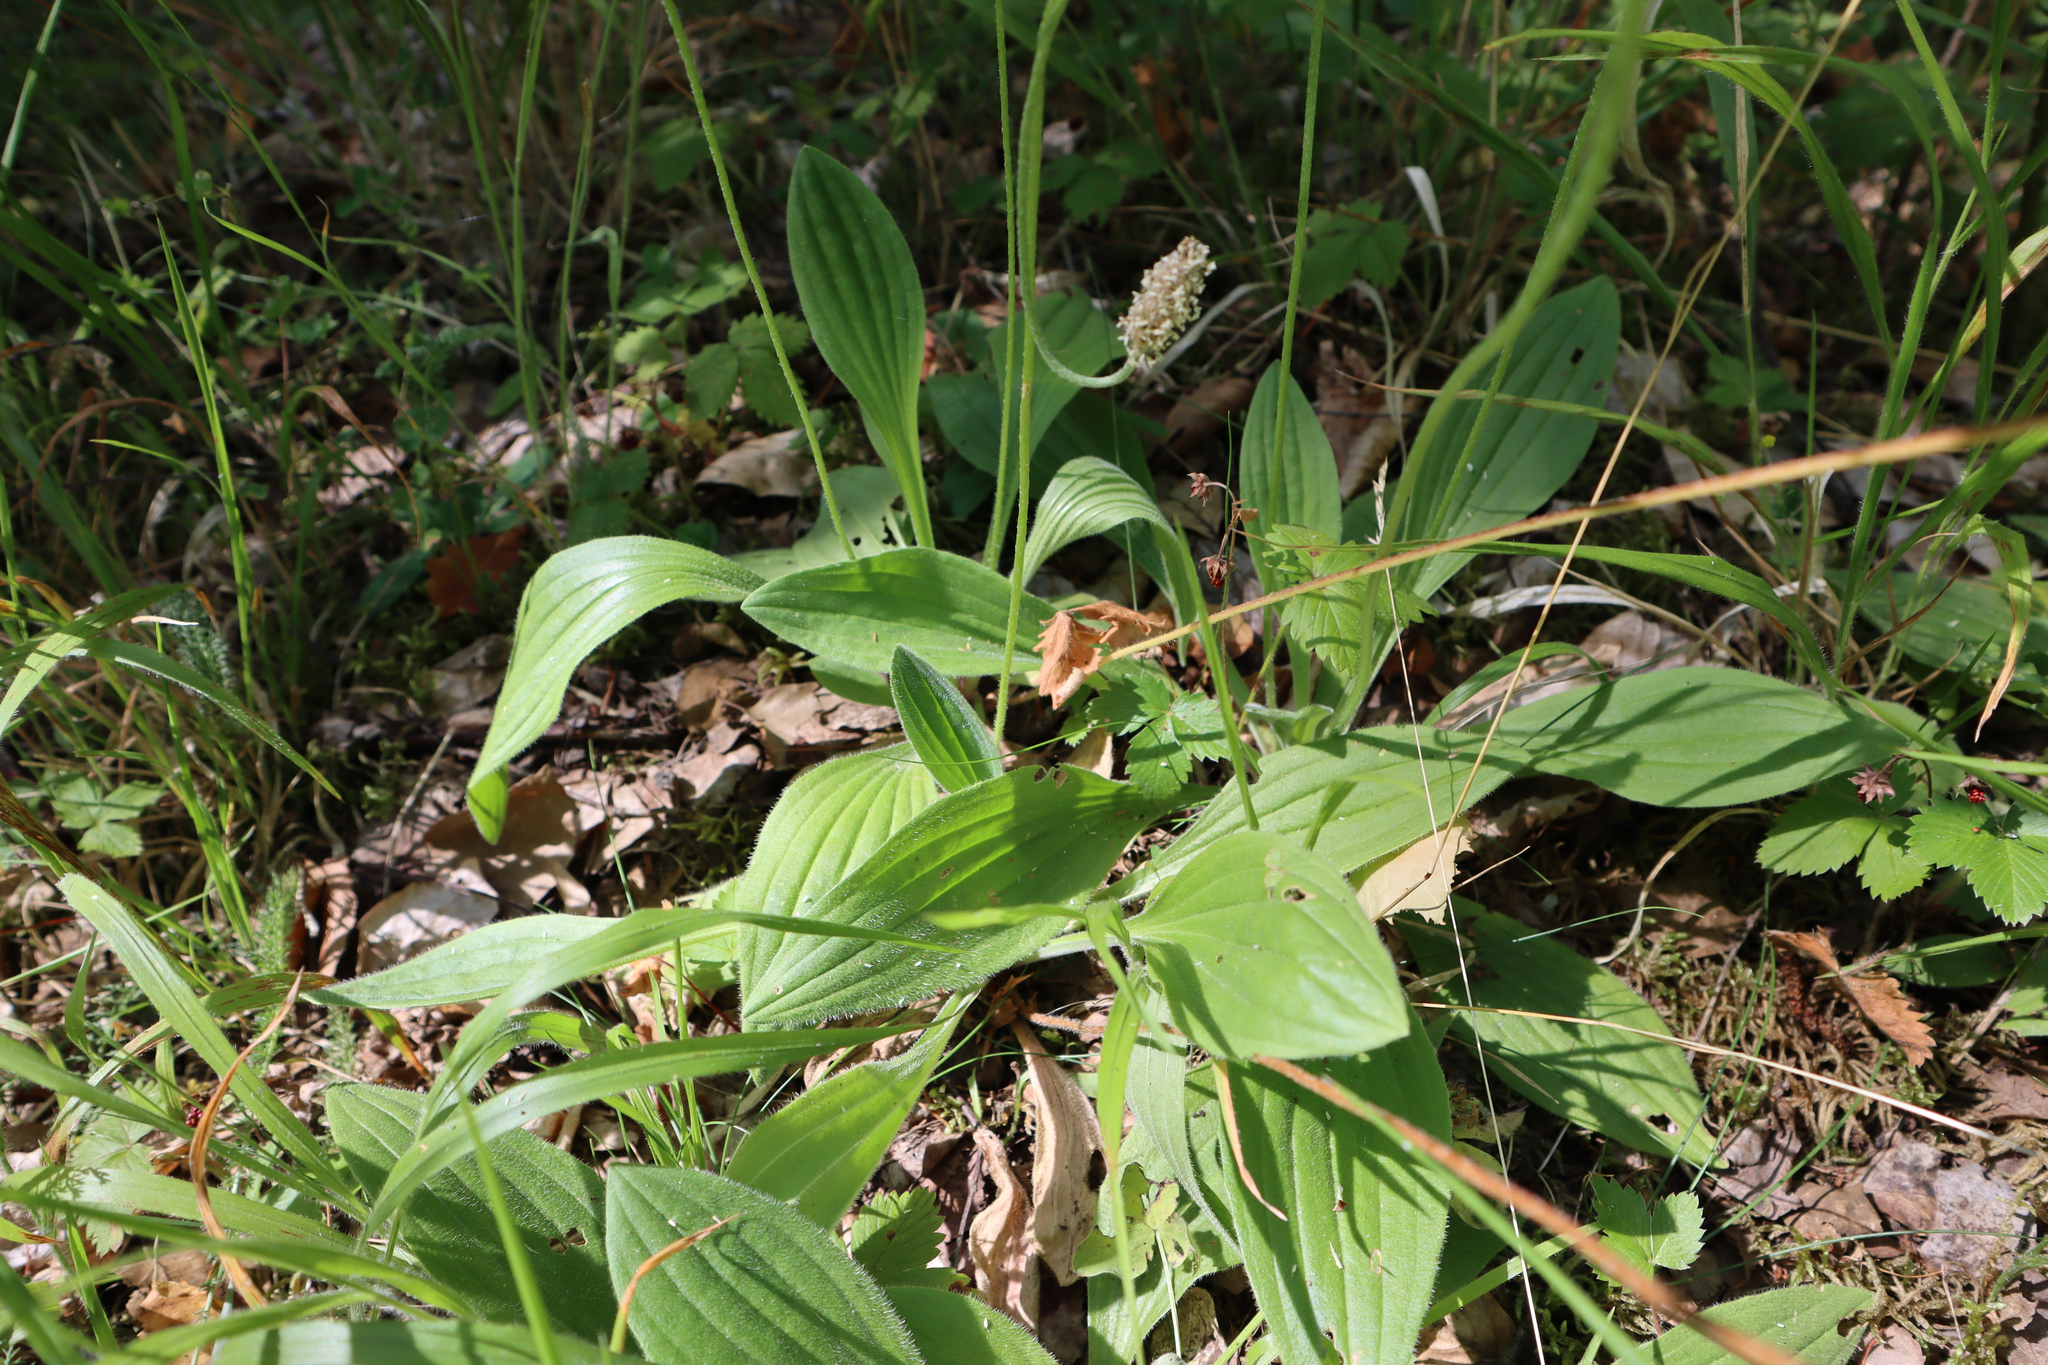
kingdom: Plantae
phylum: Tracheophyta
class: Magnoliopsida
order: Lamiales
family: Plantaginaceae
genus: Plantago
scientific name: Plantago media
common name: Hoary plantain
